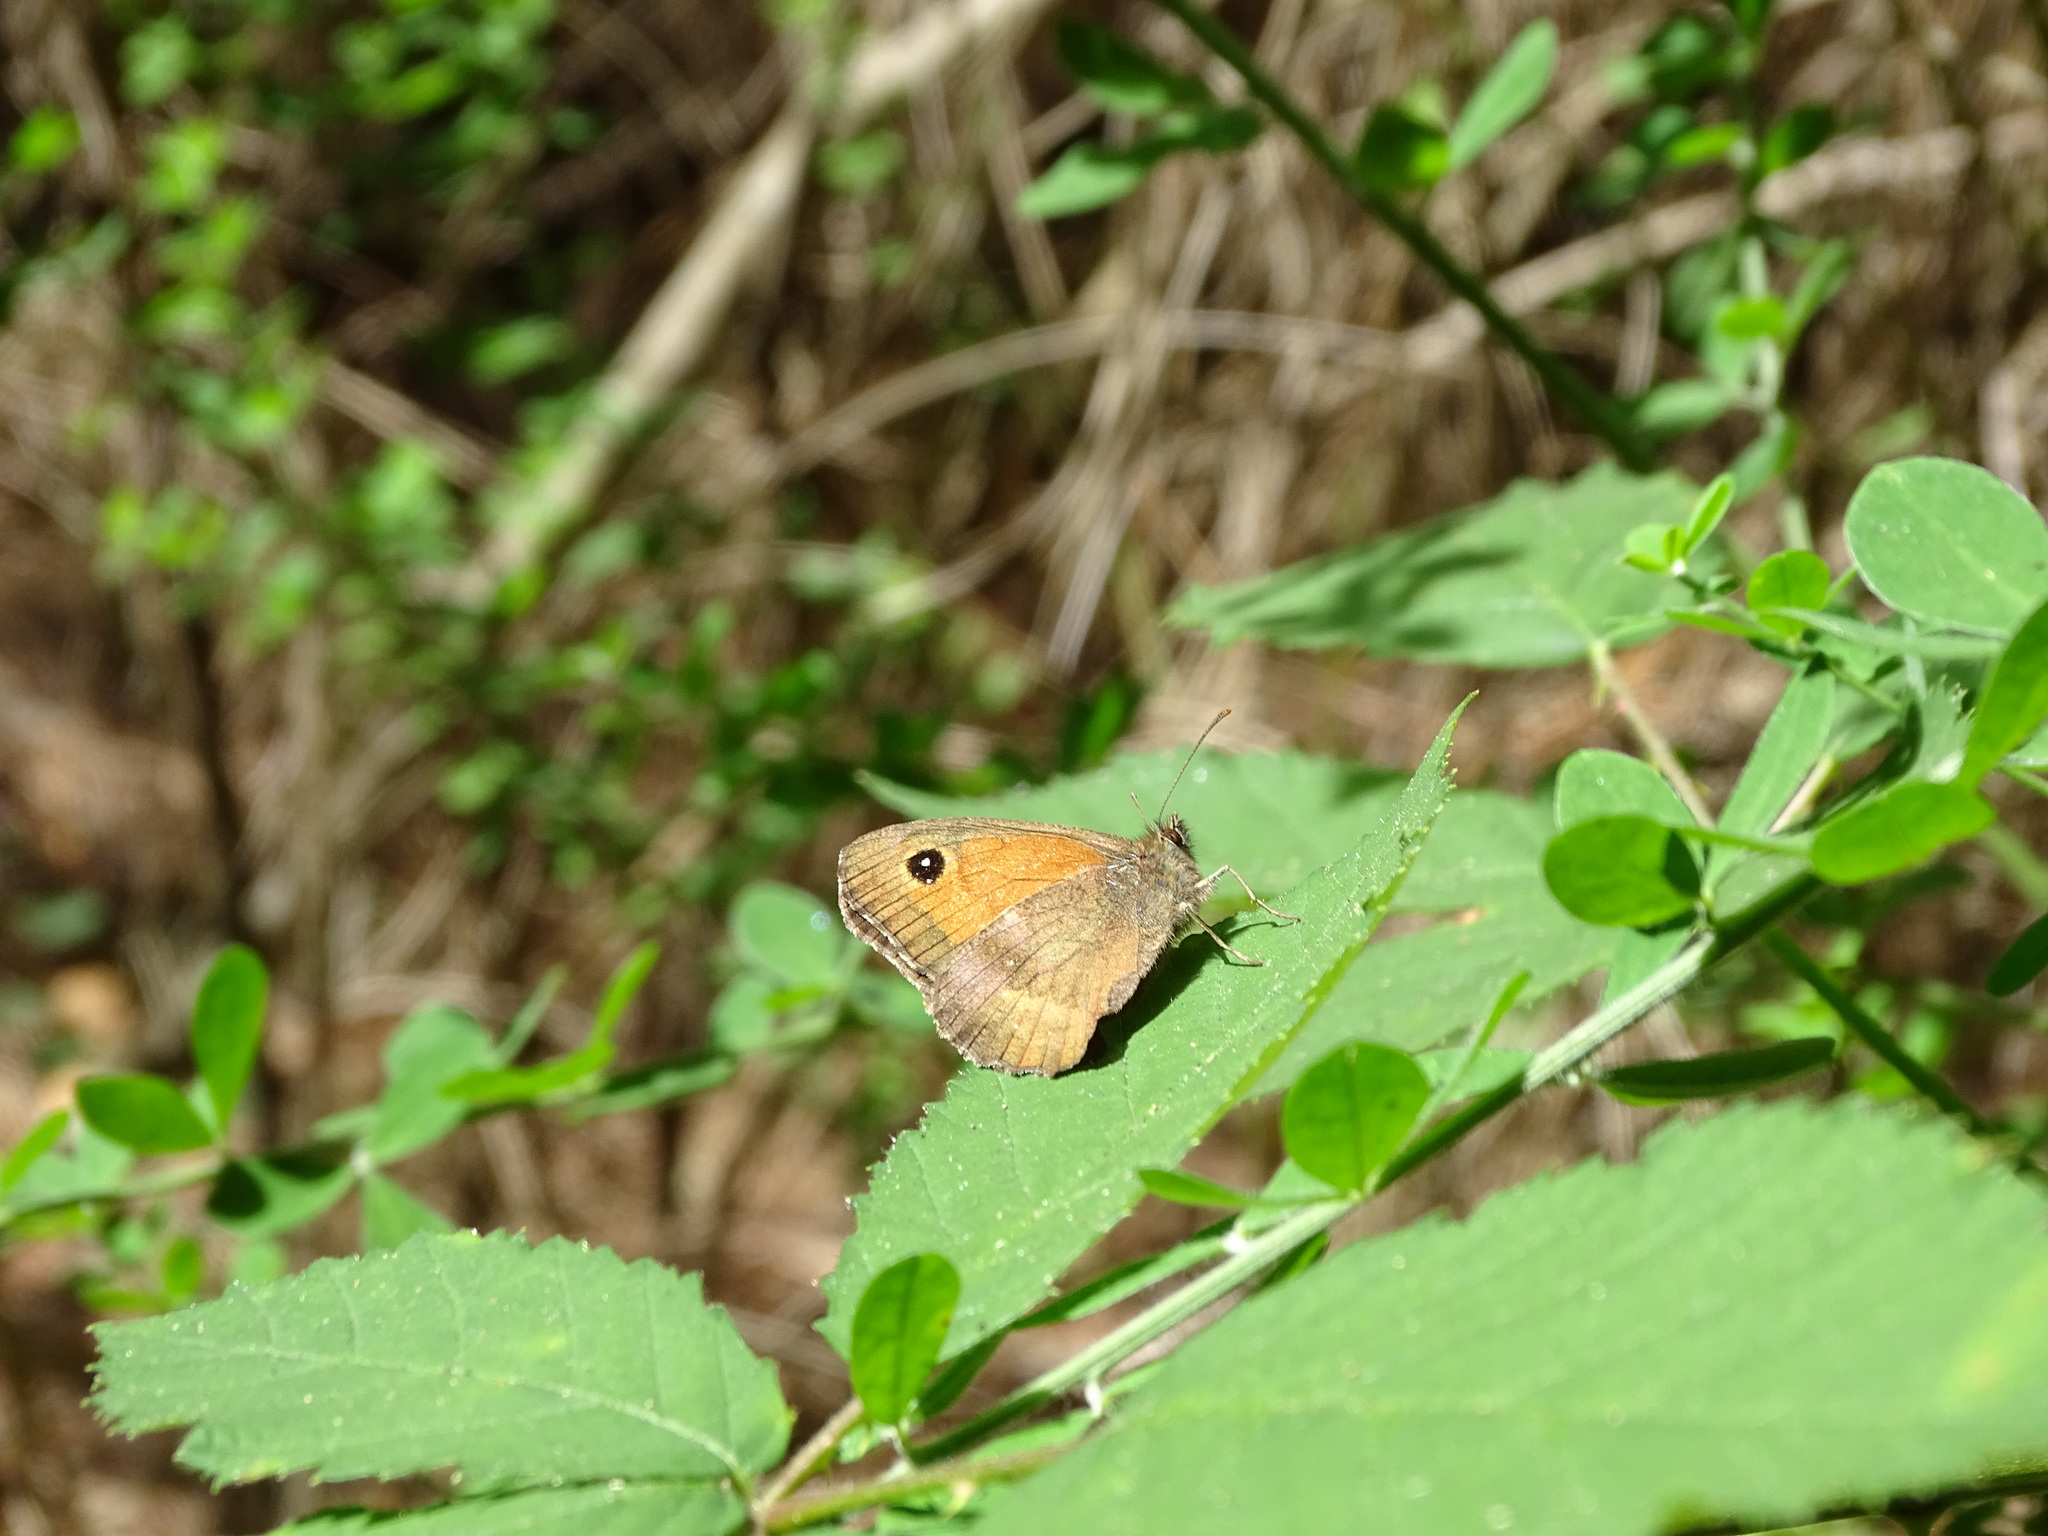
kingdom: Animalia
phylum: Arthropoda
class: Insecta
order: Lepidoptera
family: Nymphalidae
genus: Auca
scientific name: Auca coctei
